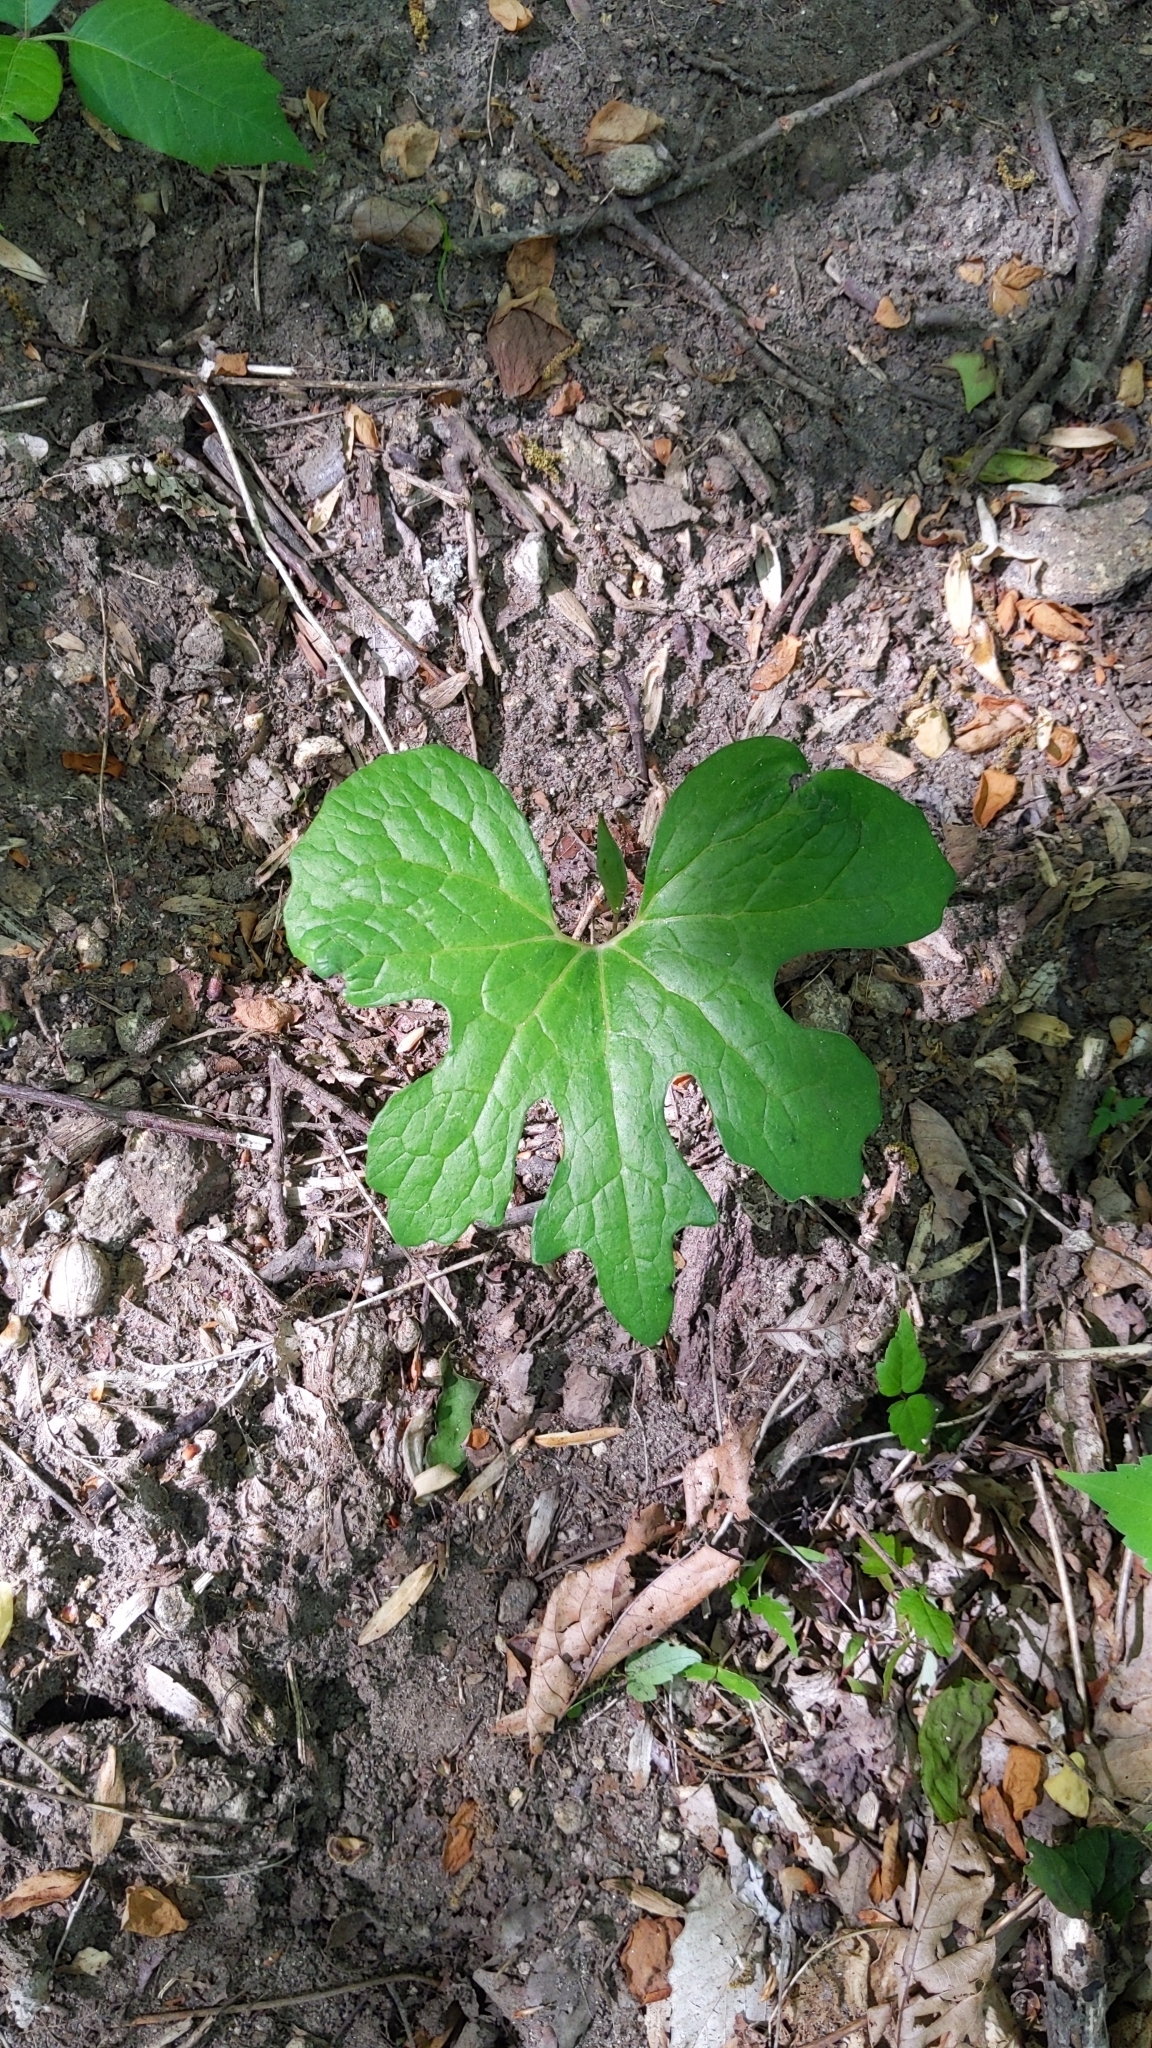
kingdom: Plantae
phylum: Tracheophyta
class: Magnoliopsida
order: Ranunculales
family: Papaveraceae
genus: Sanguinaria
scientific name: Sanguinaria canadensis
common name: Bloodroot
